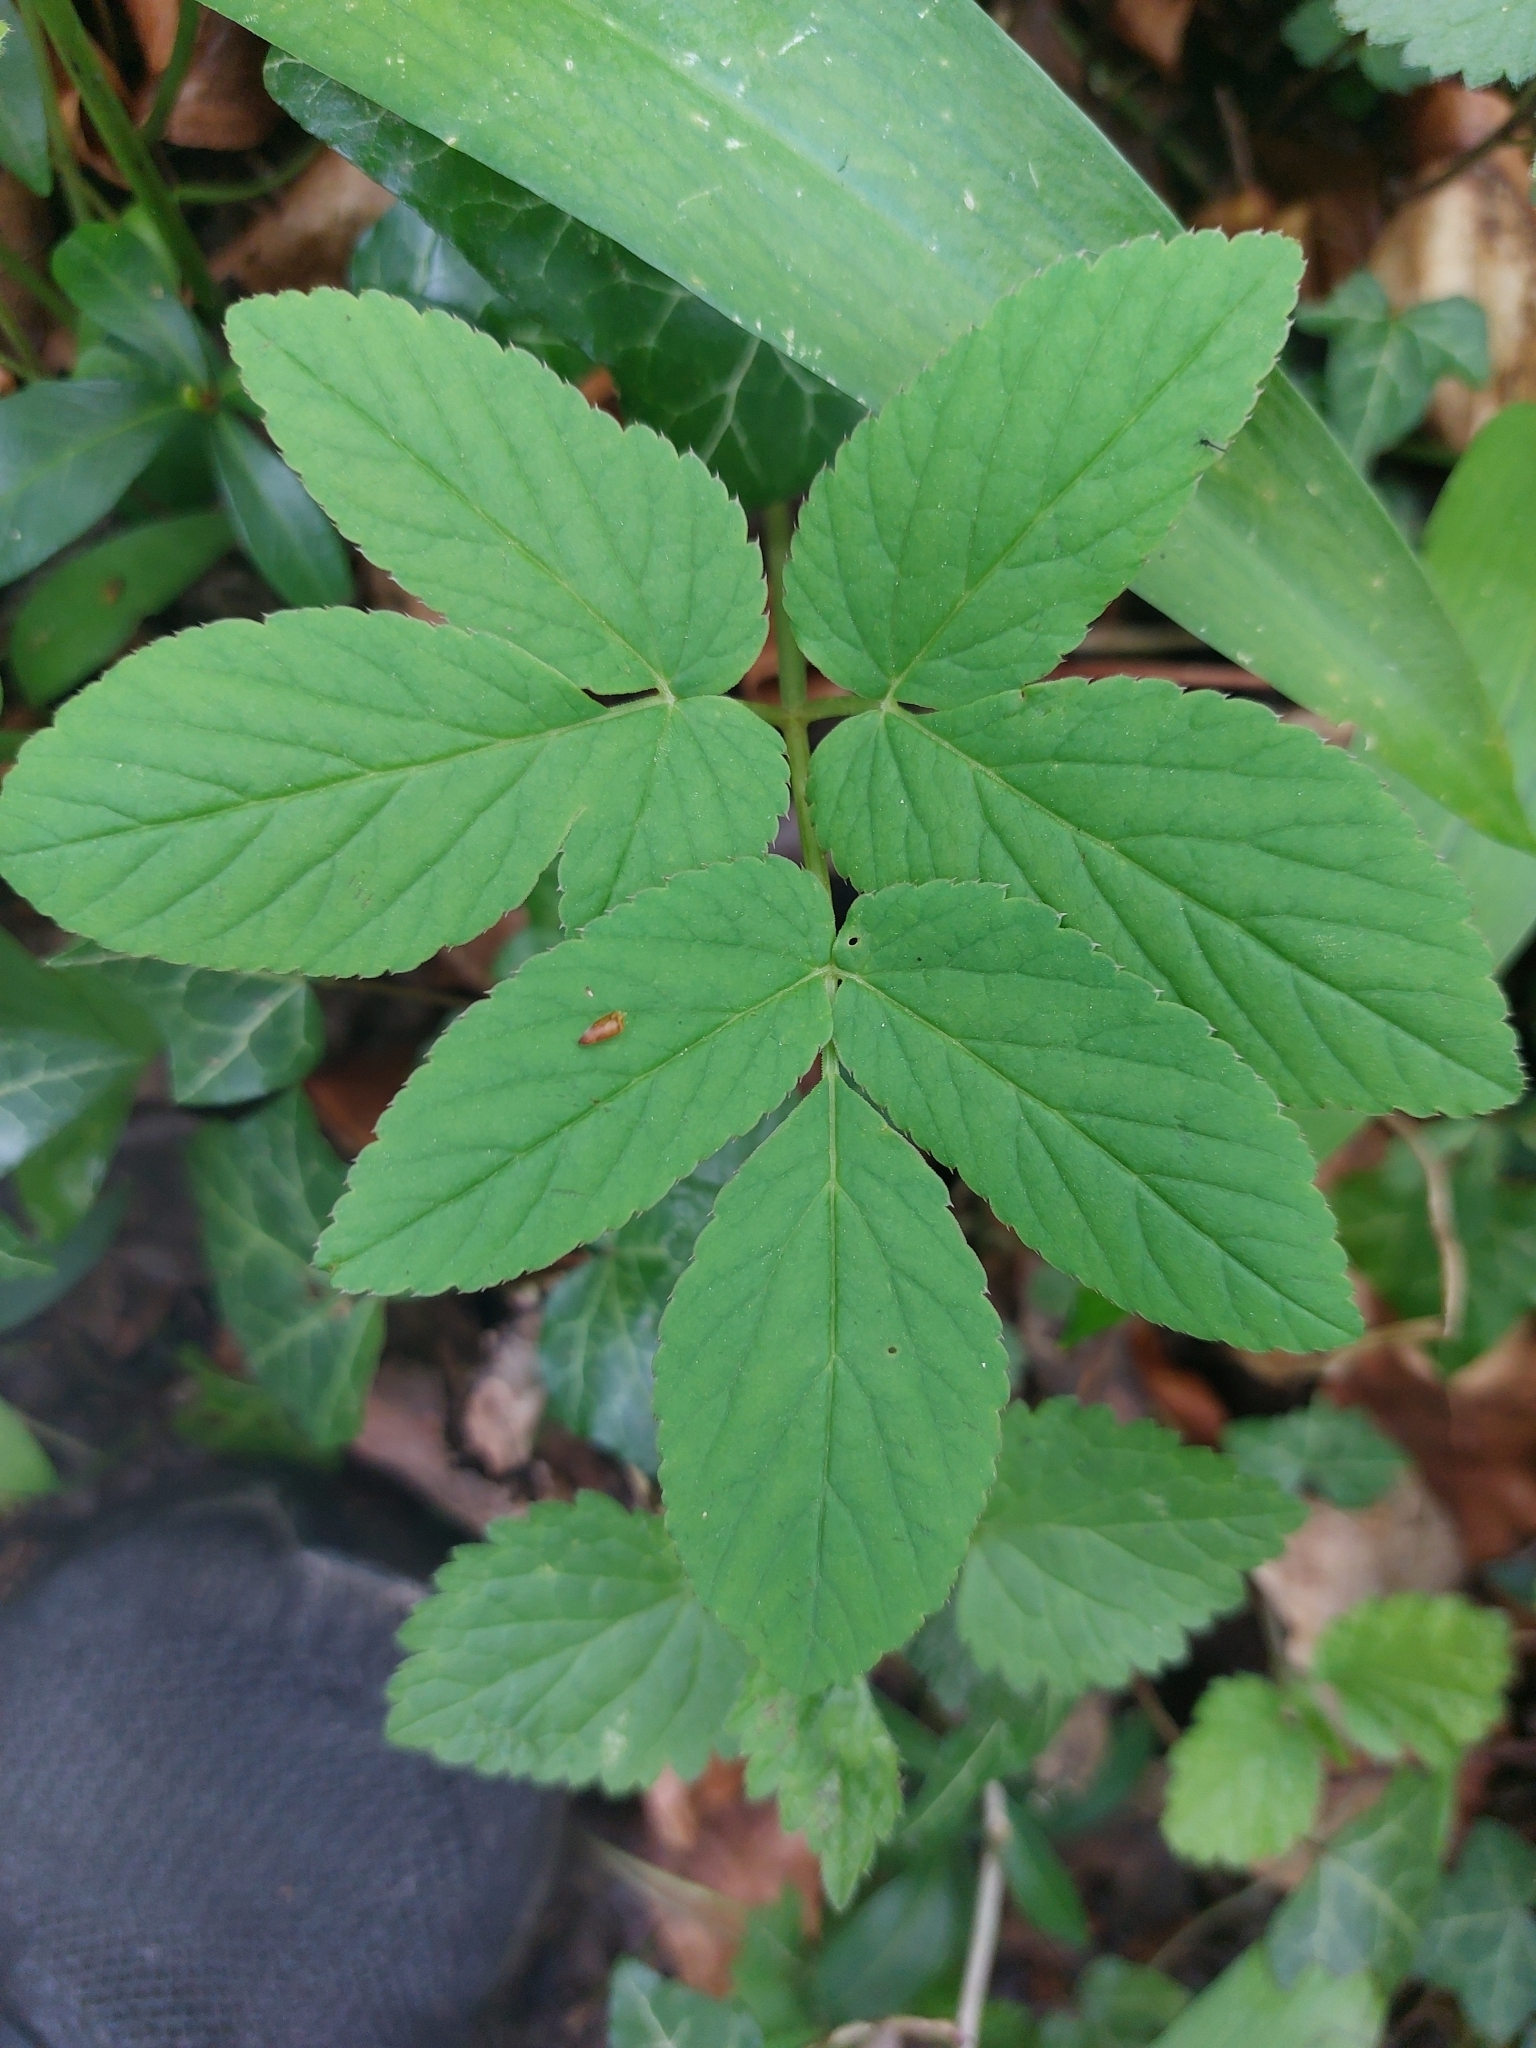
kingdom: Plantae
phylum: Tracheophyta
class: Magnoliopsida
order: Apiales
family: Apiaceae
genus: Aegopodium
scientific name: Aegopodium podagraria
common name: Ground-elder
